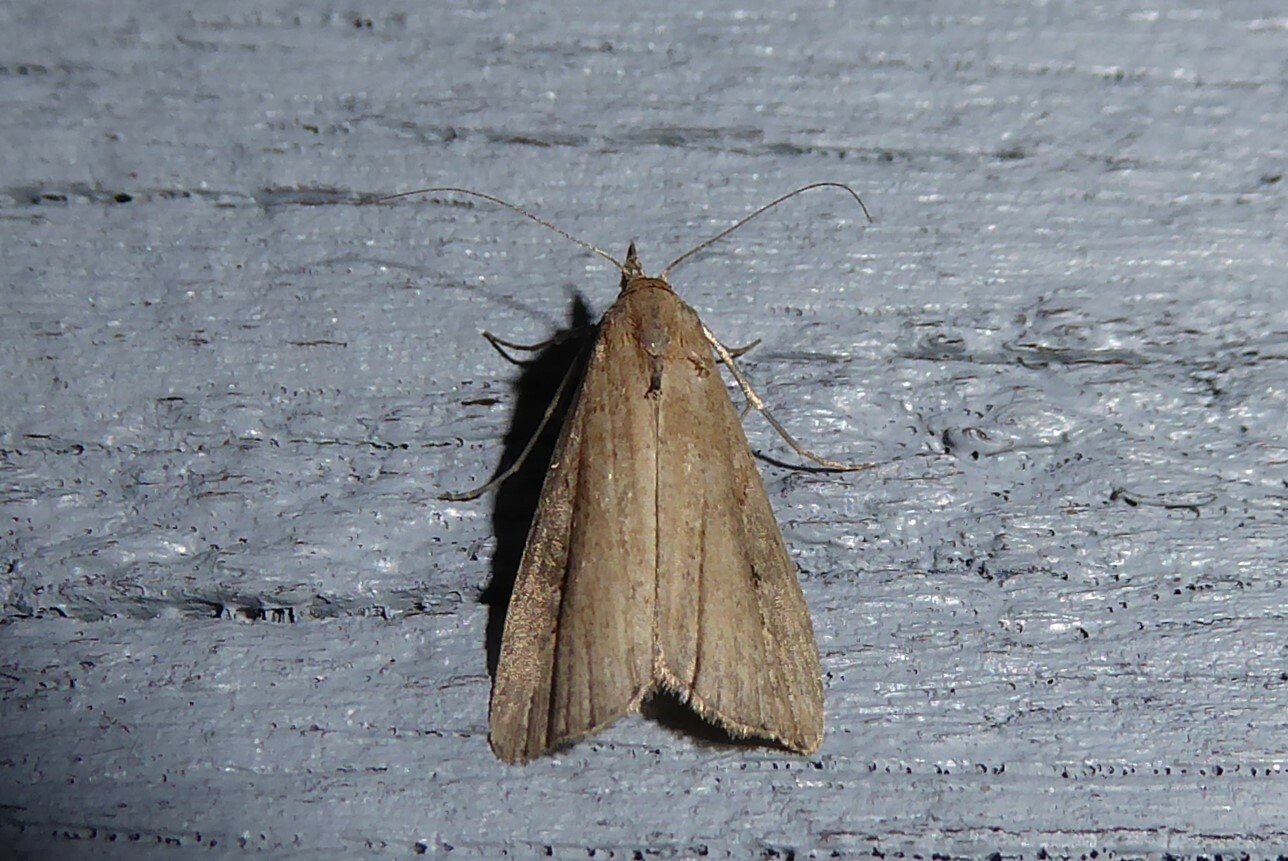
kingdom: Animalia
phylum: Arthropoda
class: Insecta
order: Lepidoptera
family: Erebidae
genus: Schrankia
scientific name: Schrankia costaestrigalis
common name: Pinion-streaked snout
